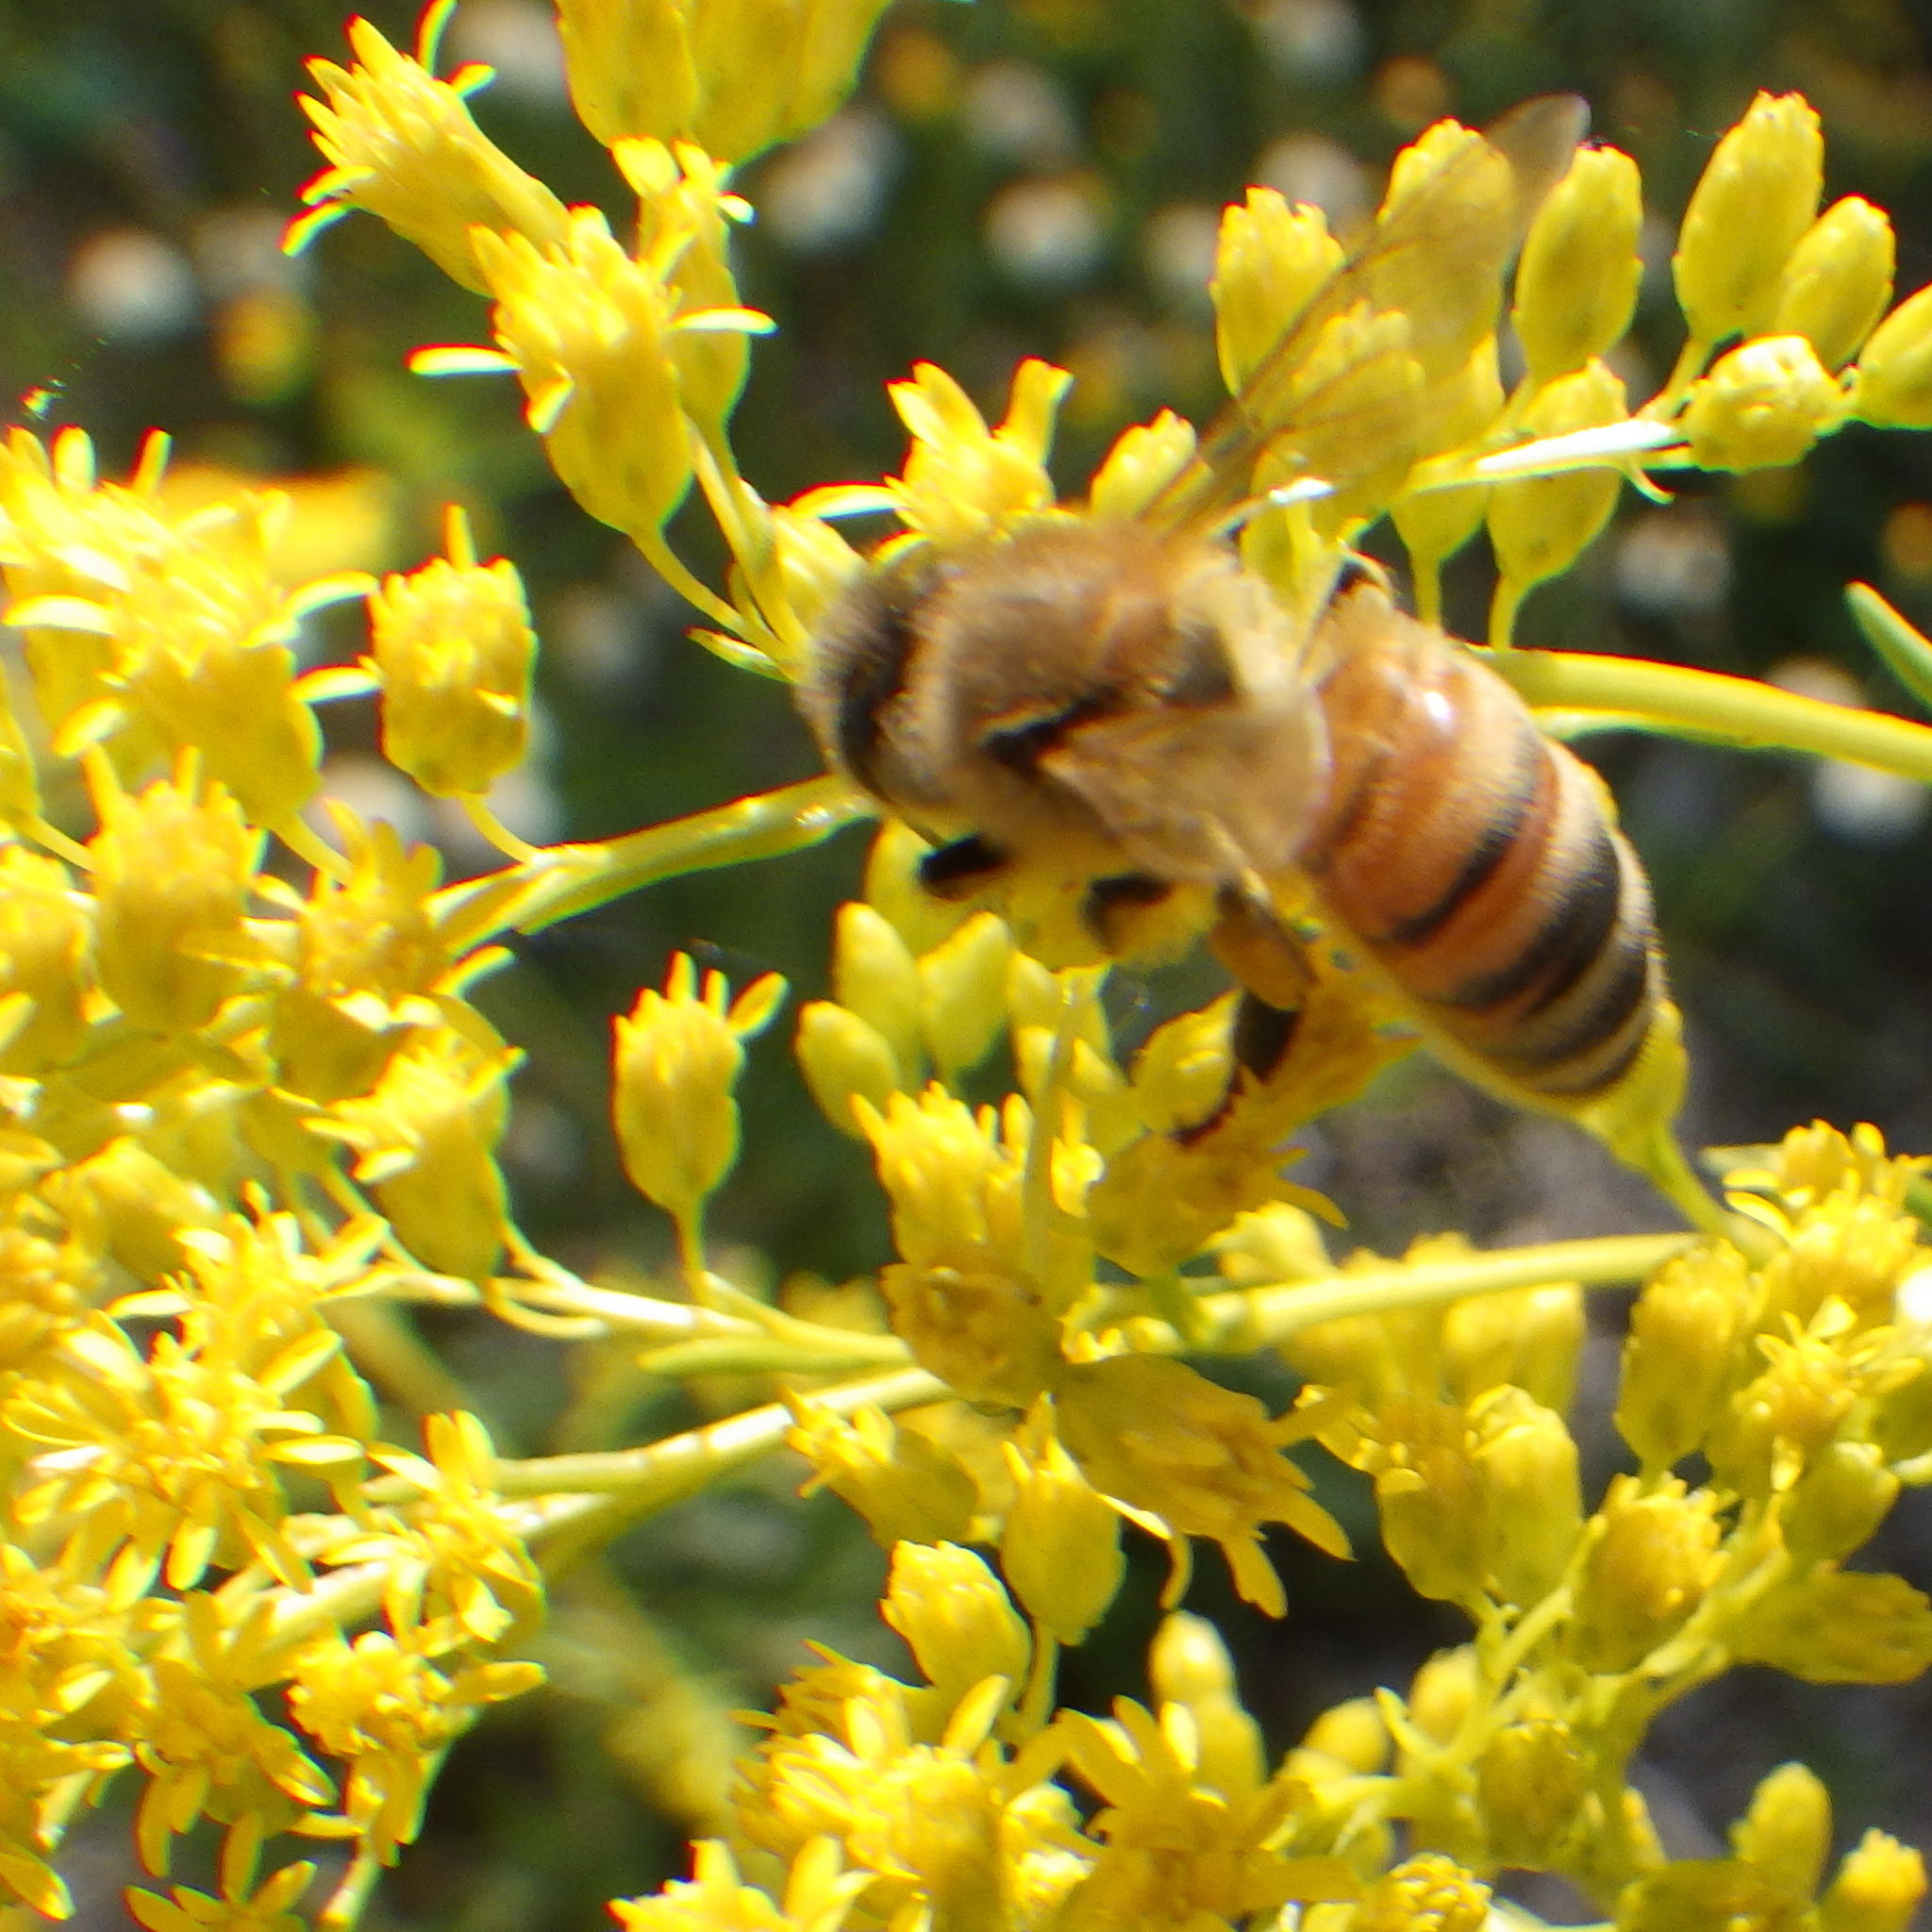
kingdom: Animalia
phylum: Arthropoda
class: Insecta
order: Hymenoptera
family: Apidae
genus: Apis
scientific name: Apis mellifera
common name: Honey bee
